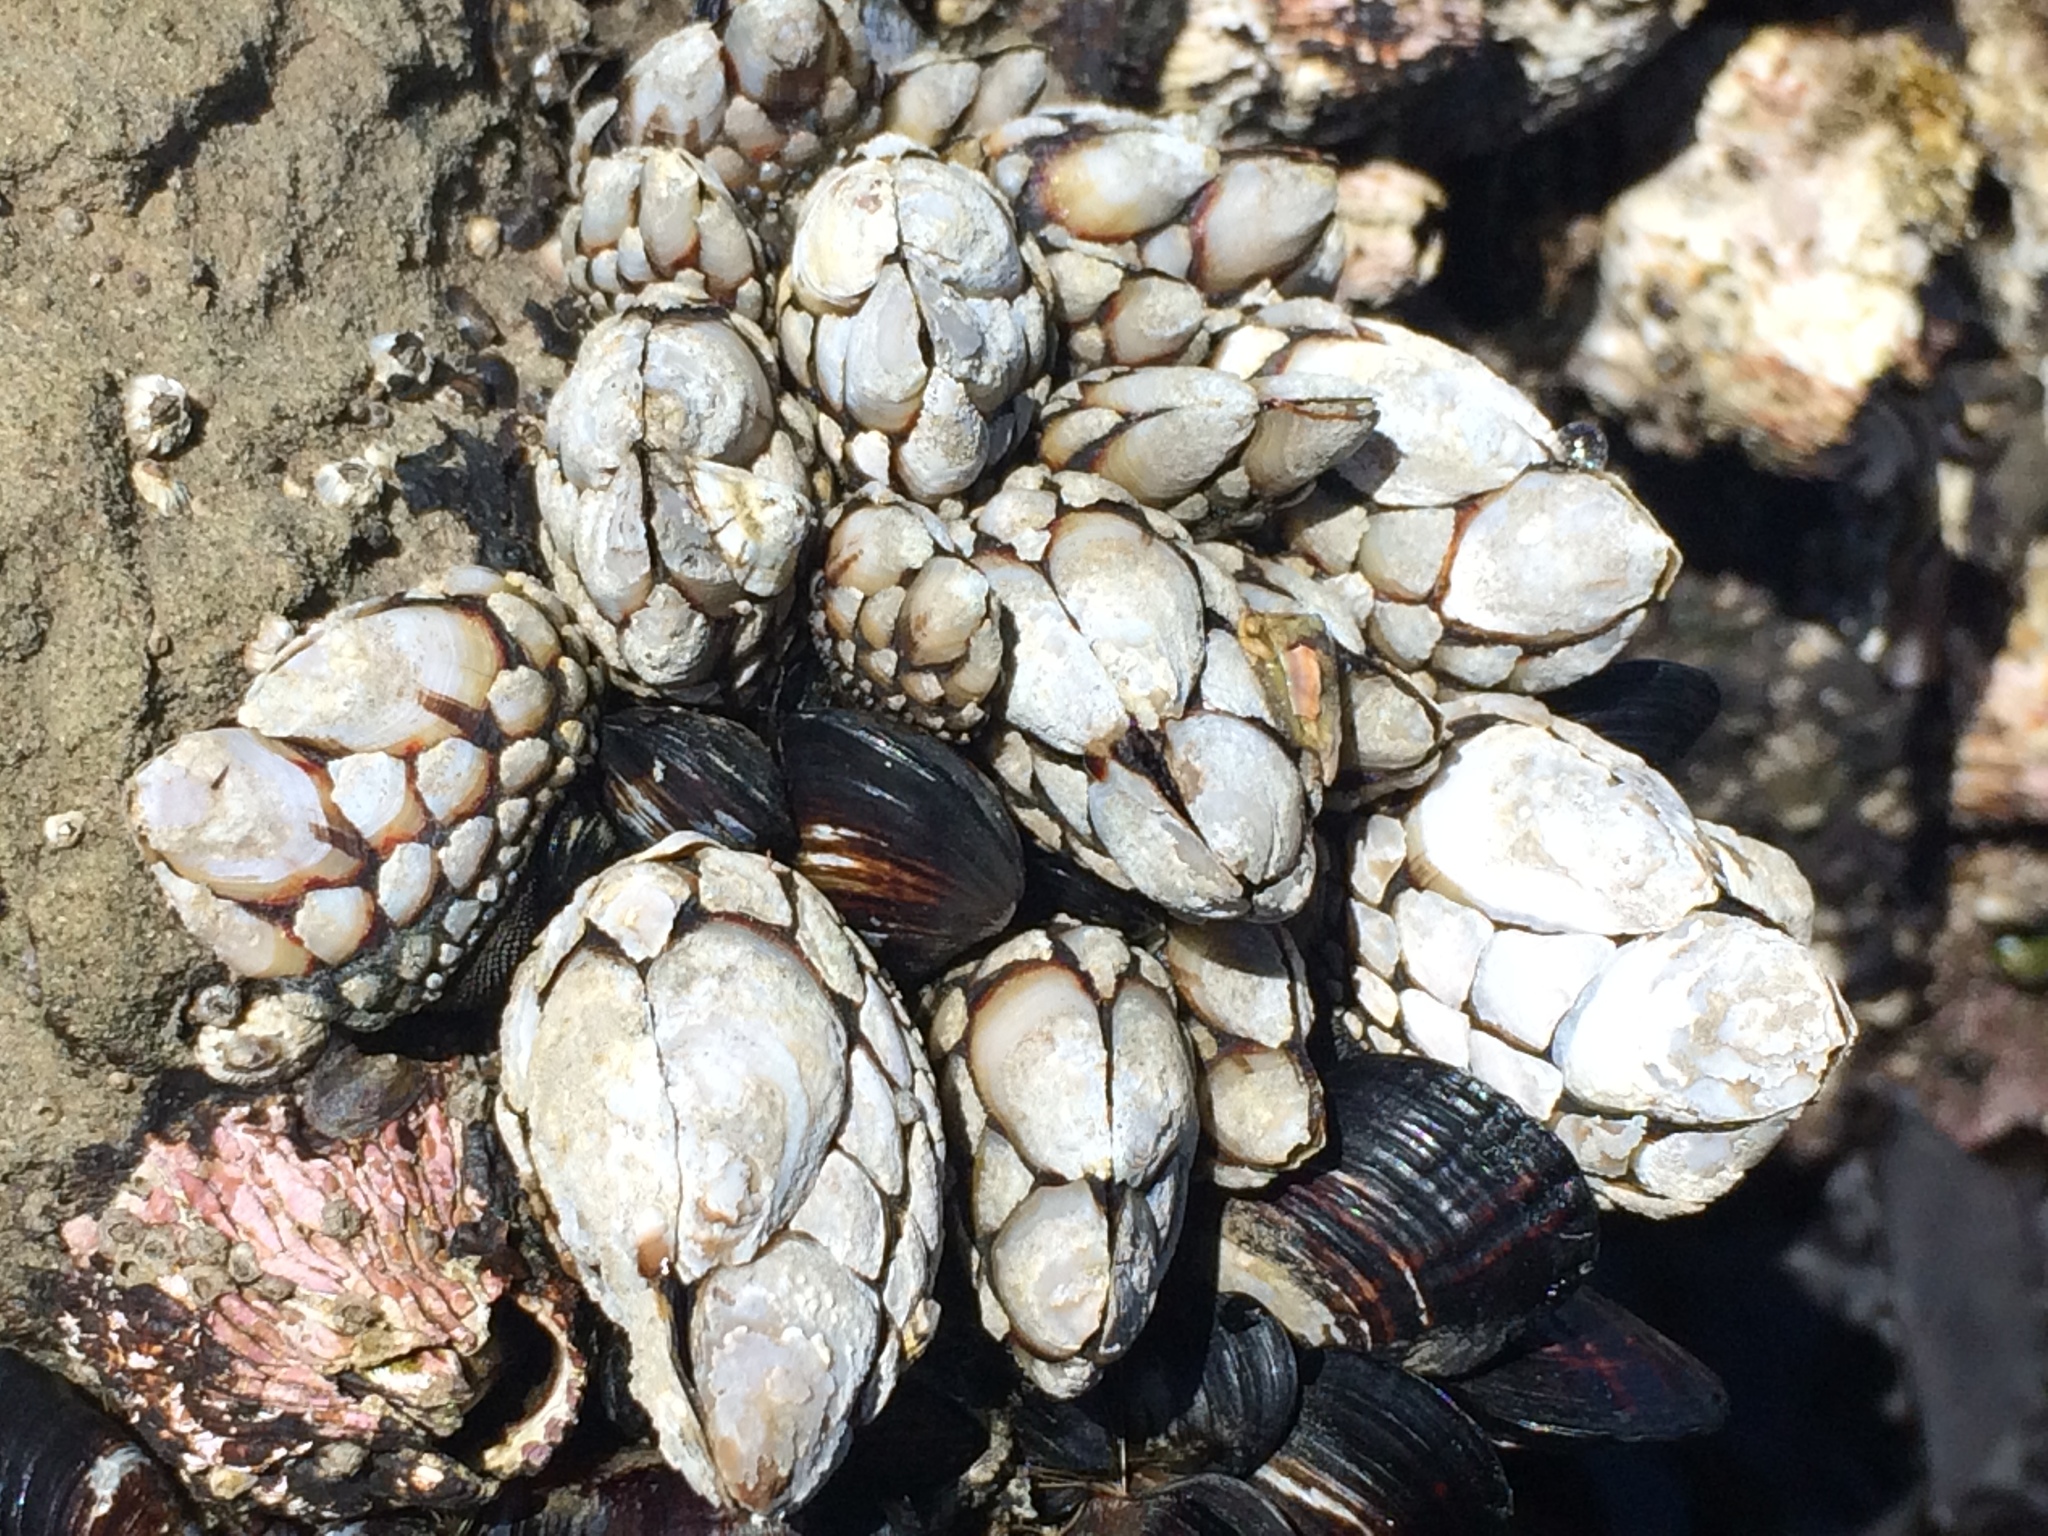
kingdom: Animalia
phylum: Arthropoda
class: Maxillopoda
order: Pedunculata
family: Pollicipedidae
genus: Pollicipes
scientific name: Pollicipes polymerus
